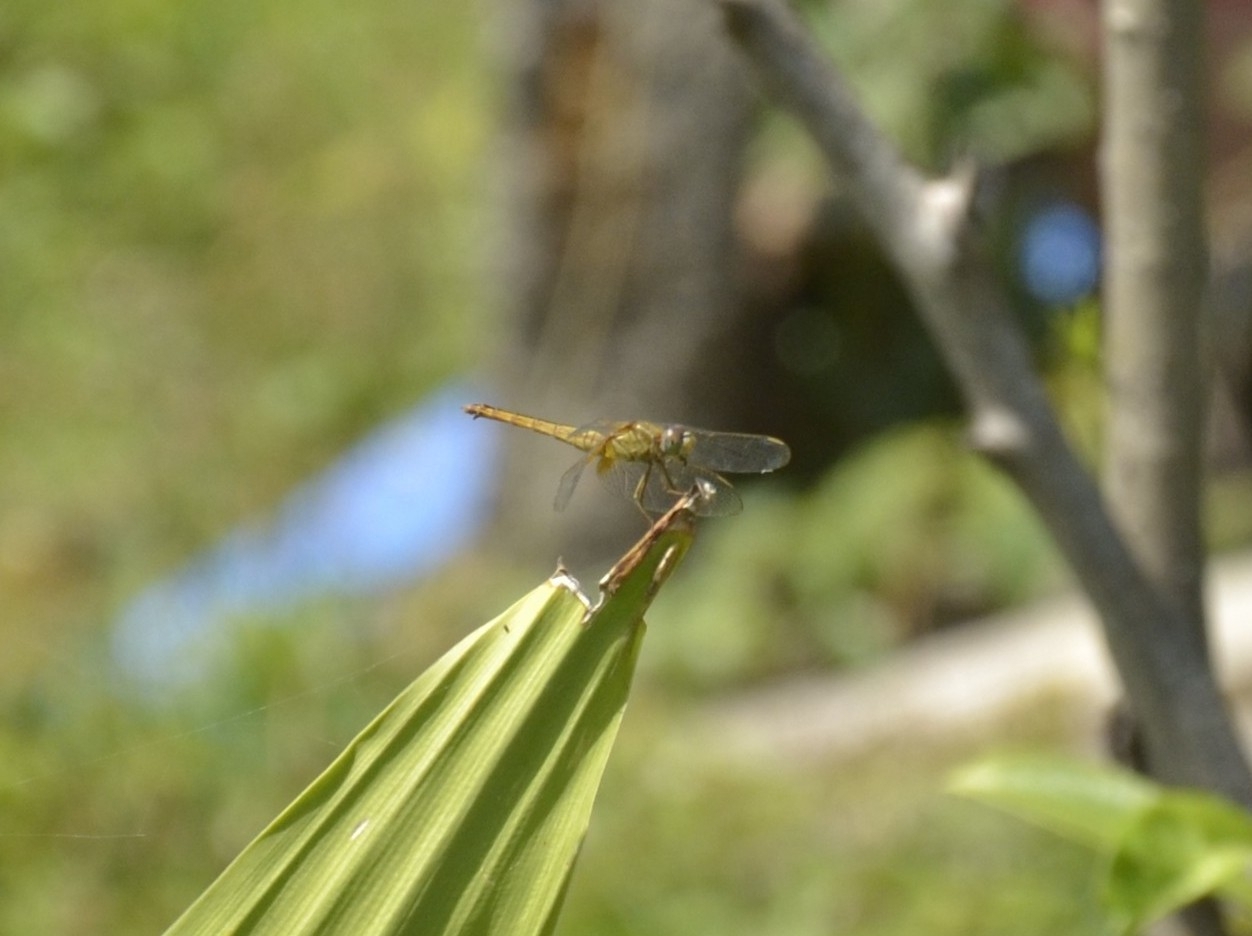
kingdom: Animalia
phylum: Arthropoda
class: Insecta
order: Odonata
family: Libellulidae
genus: Crocothemis
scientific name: Crocothemis servilia
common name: Scarlet skimmer
